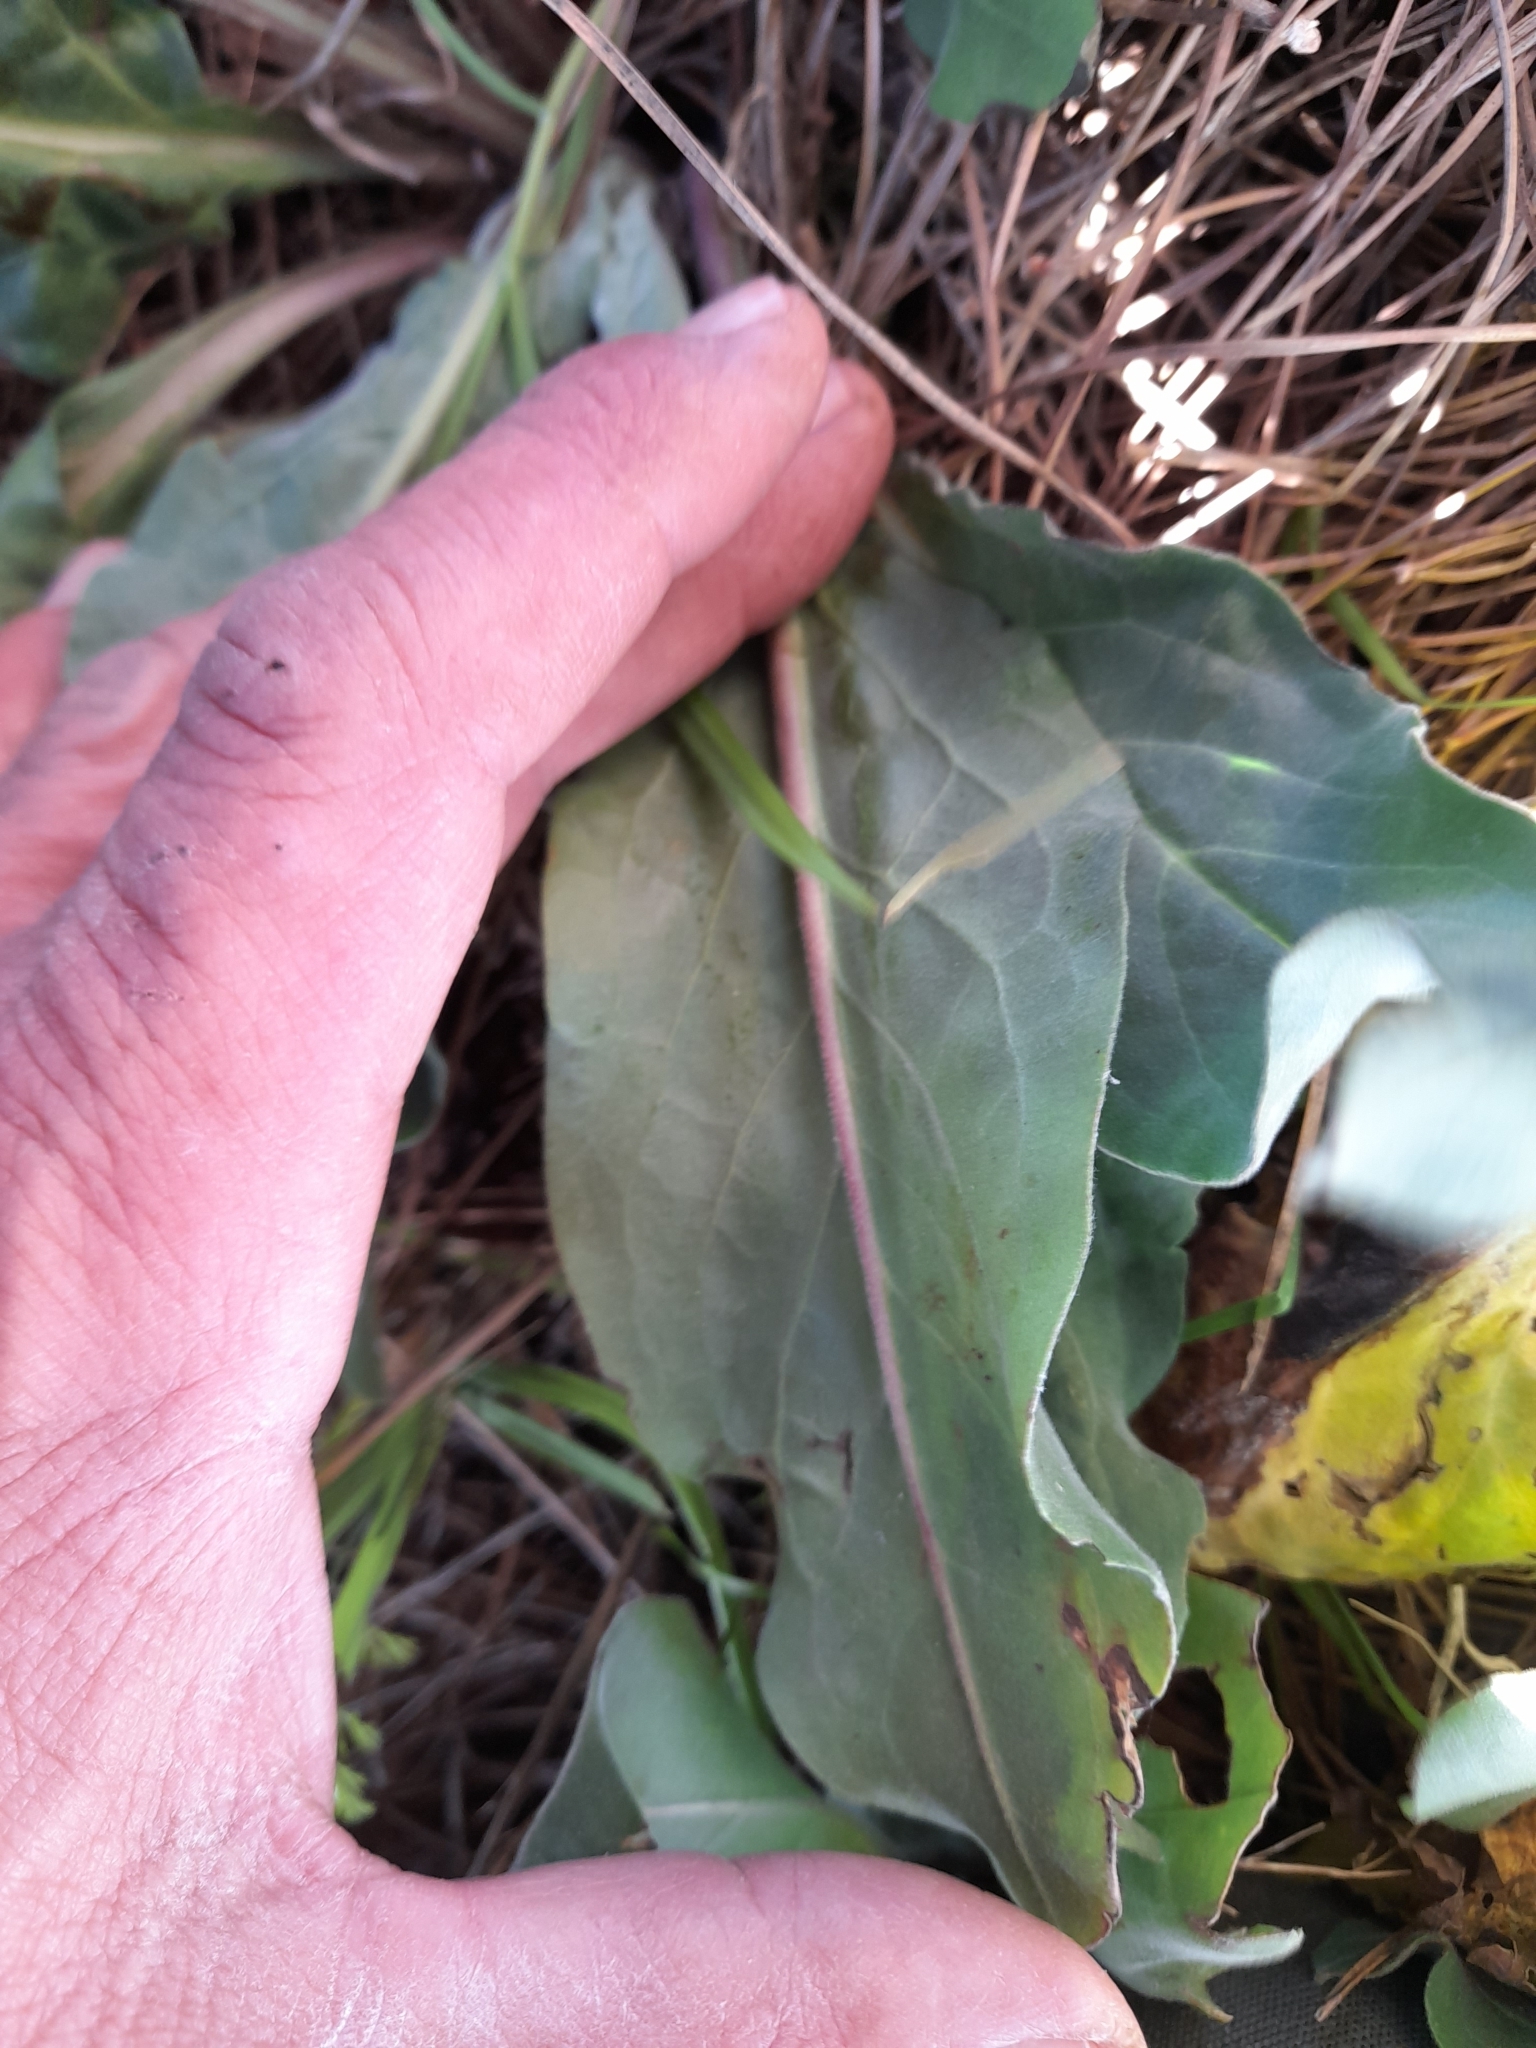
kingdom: Plantae
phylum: Tracheophyta
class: Magnoliopsida
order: Boraginales
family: Boraginaceae
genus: Cynoglossum
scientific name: Cynoglossum creticum
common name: Blue hound's tongue
